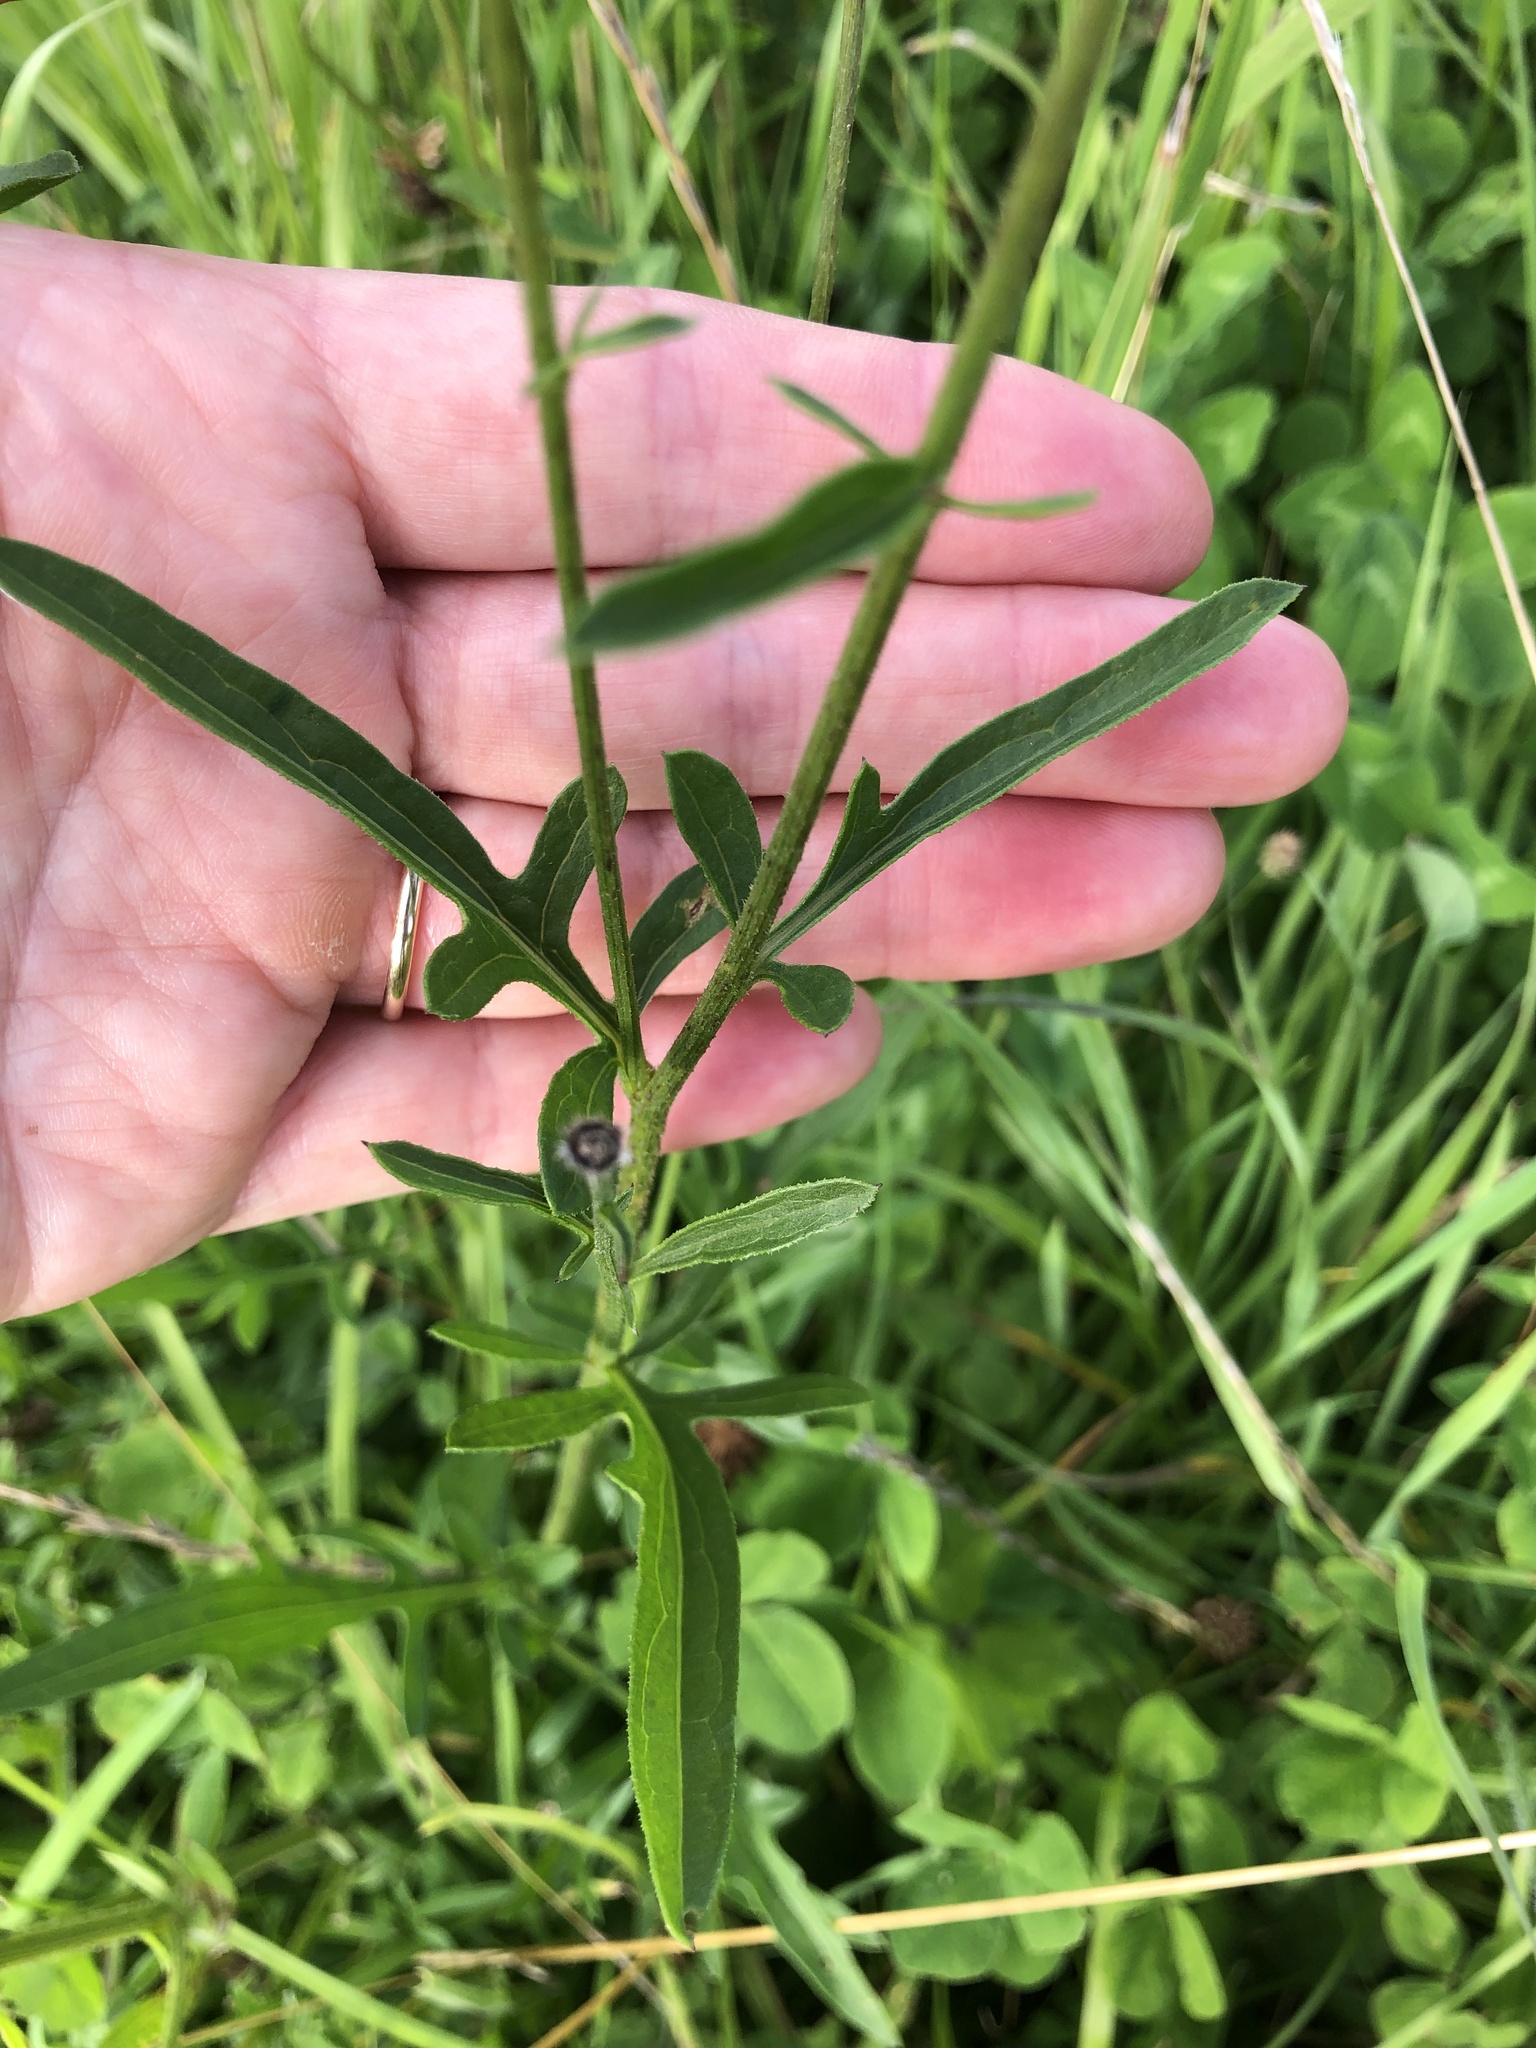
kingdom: Plantae
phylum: Tracheophyta
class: Magnoliopsida
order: Asterales
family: Asteraceae
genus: Centaurea
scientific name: Centaurea scabiosa
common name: Greater knapweed
